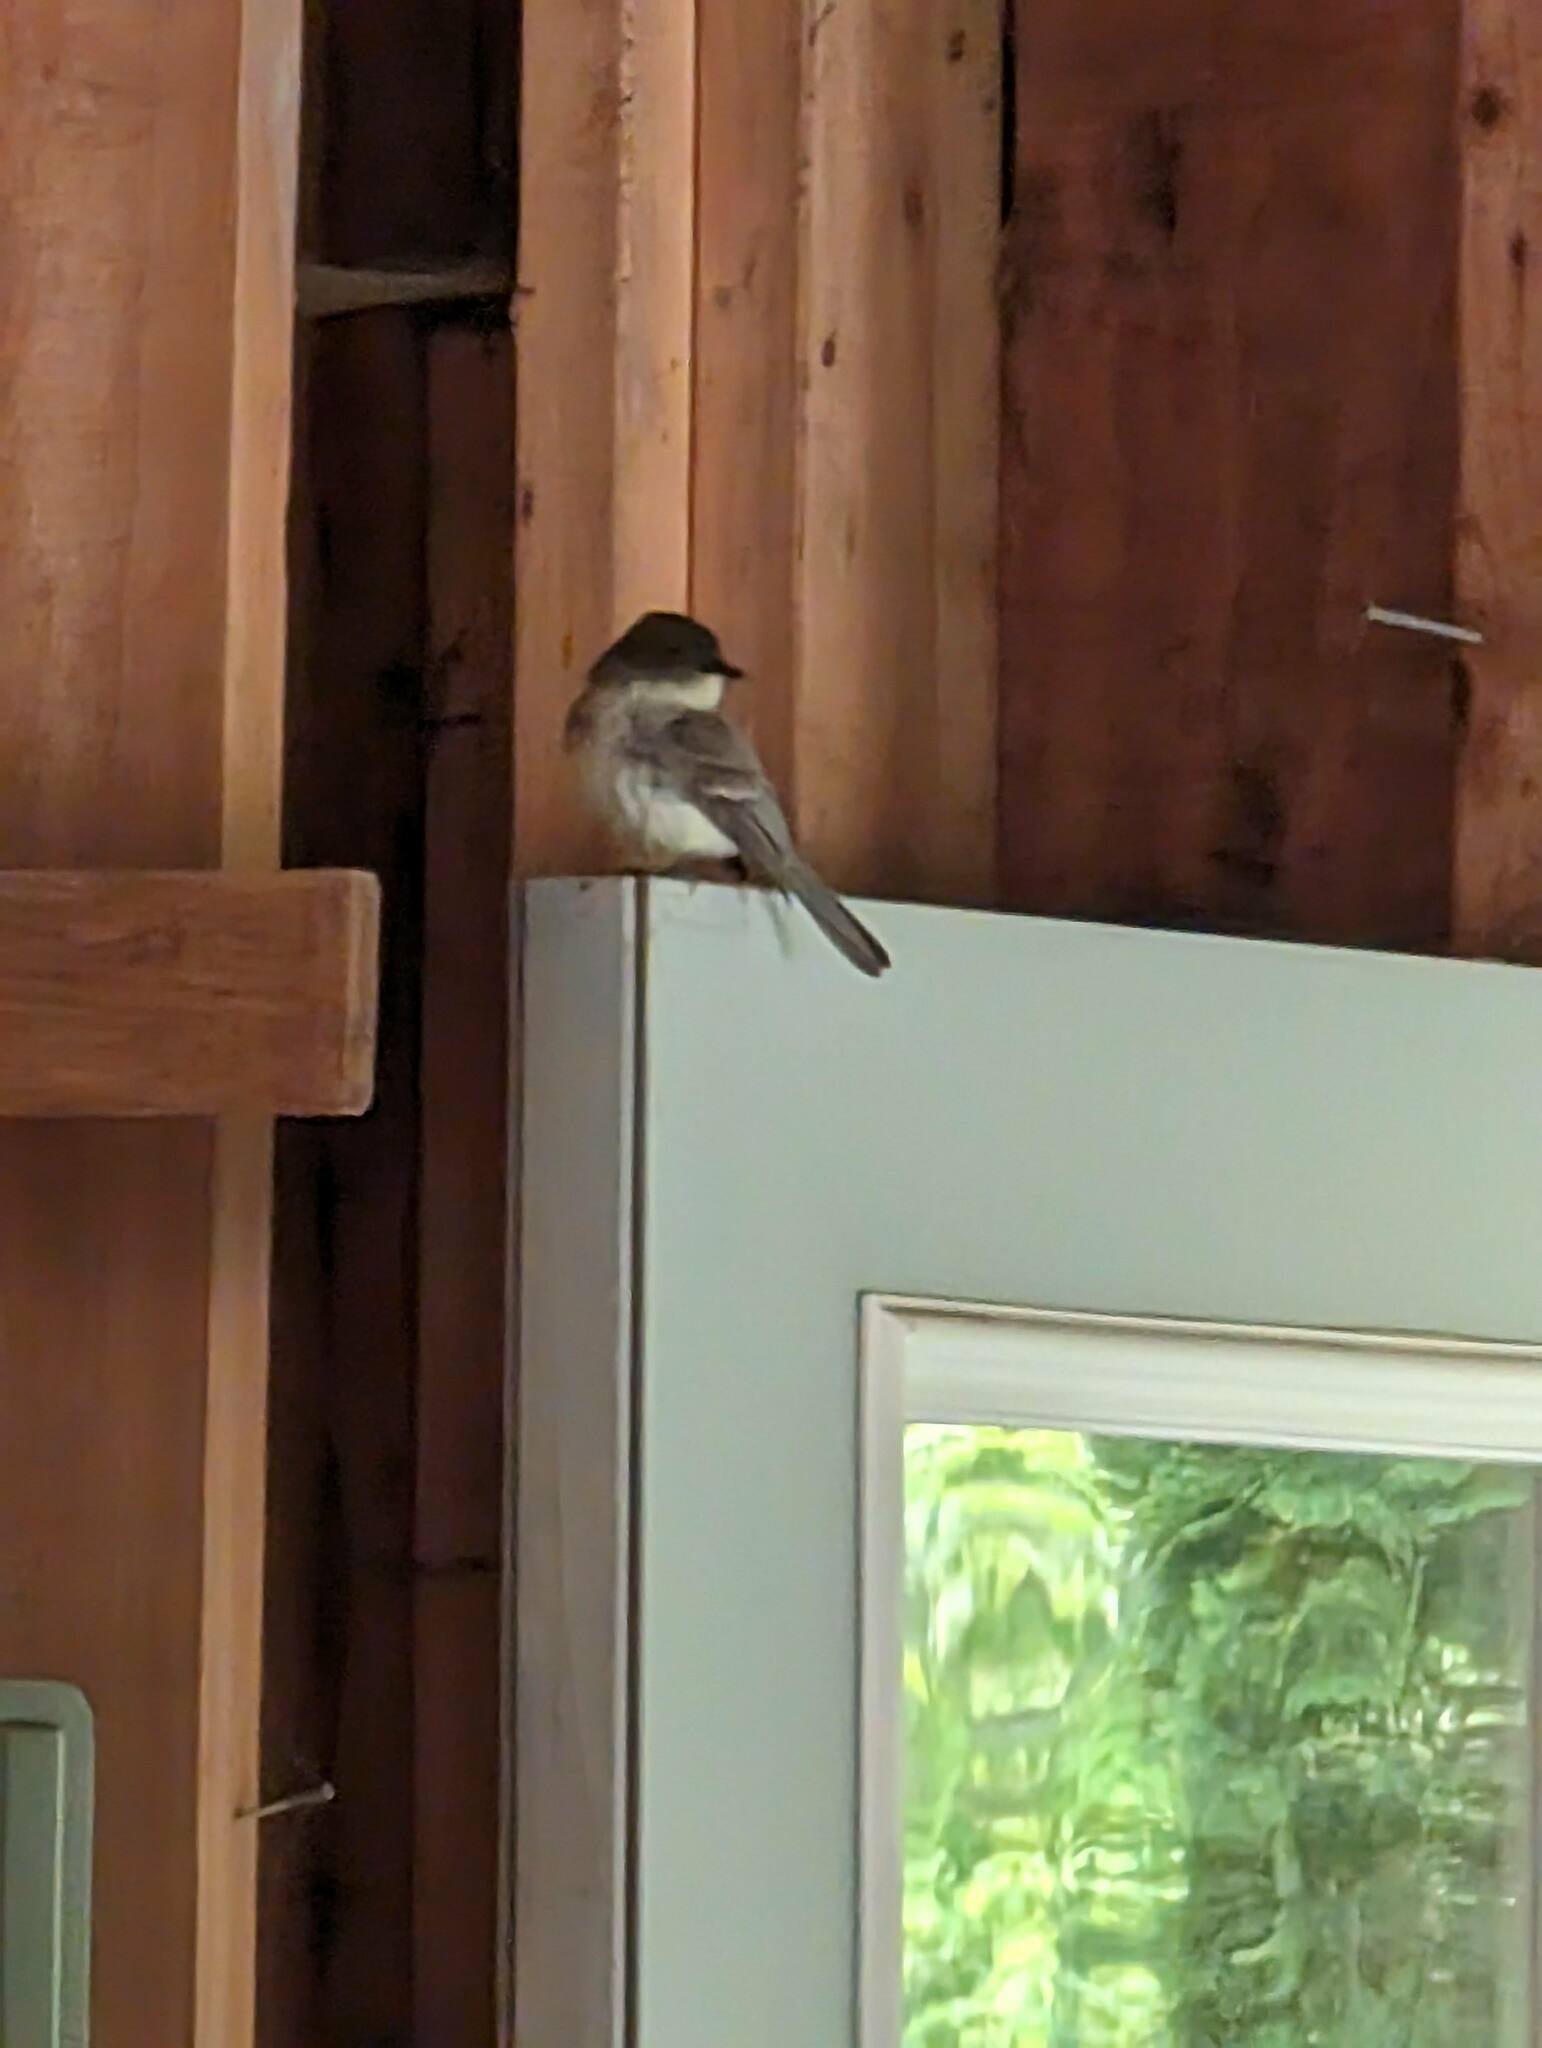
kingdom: Animalia
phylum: Chordata
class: Aves
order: Passeriformes
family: Tyrannidae
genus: Sayornis
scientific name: Sayornis phoebe
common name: Eastern phoebe
